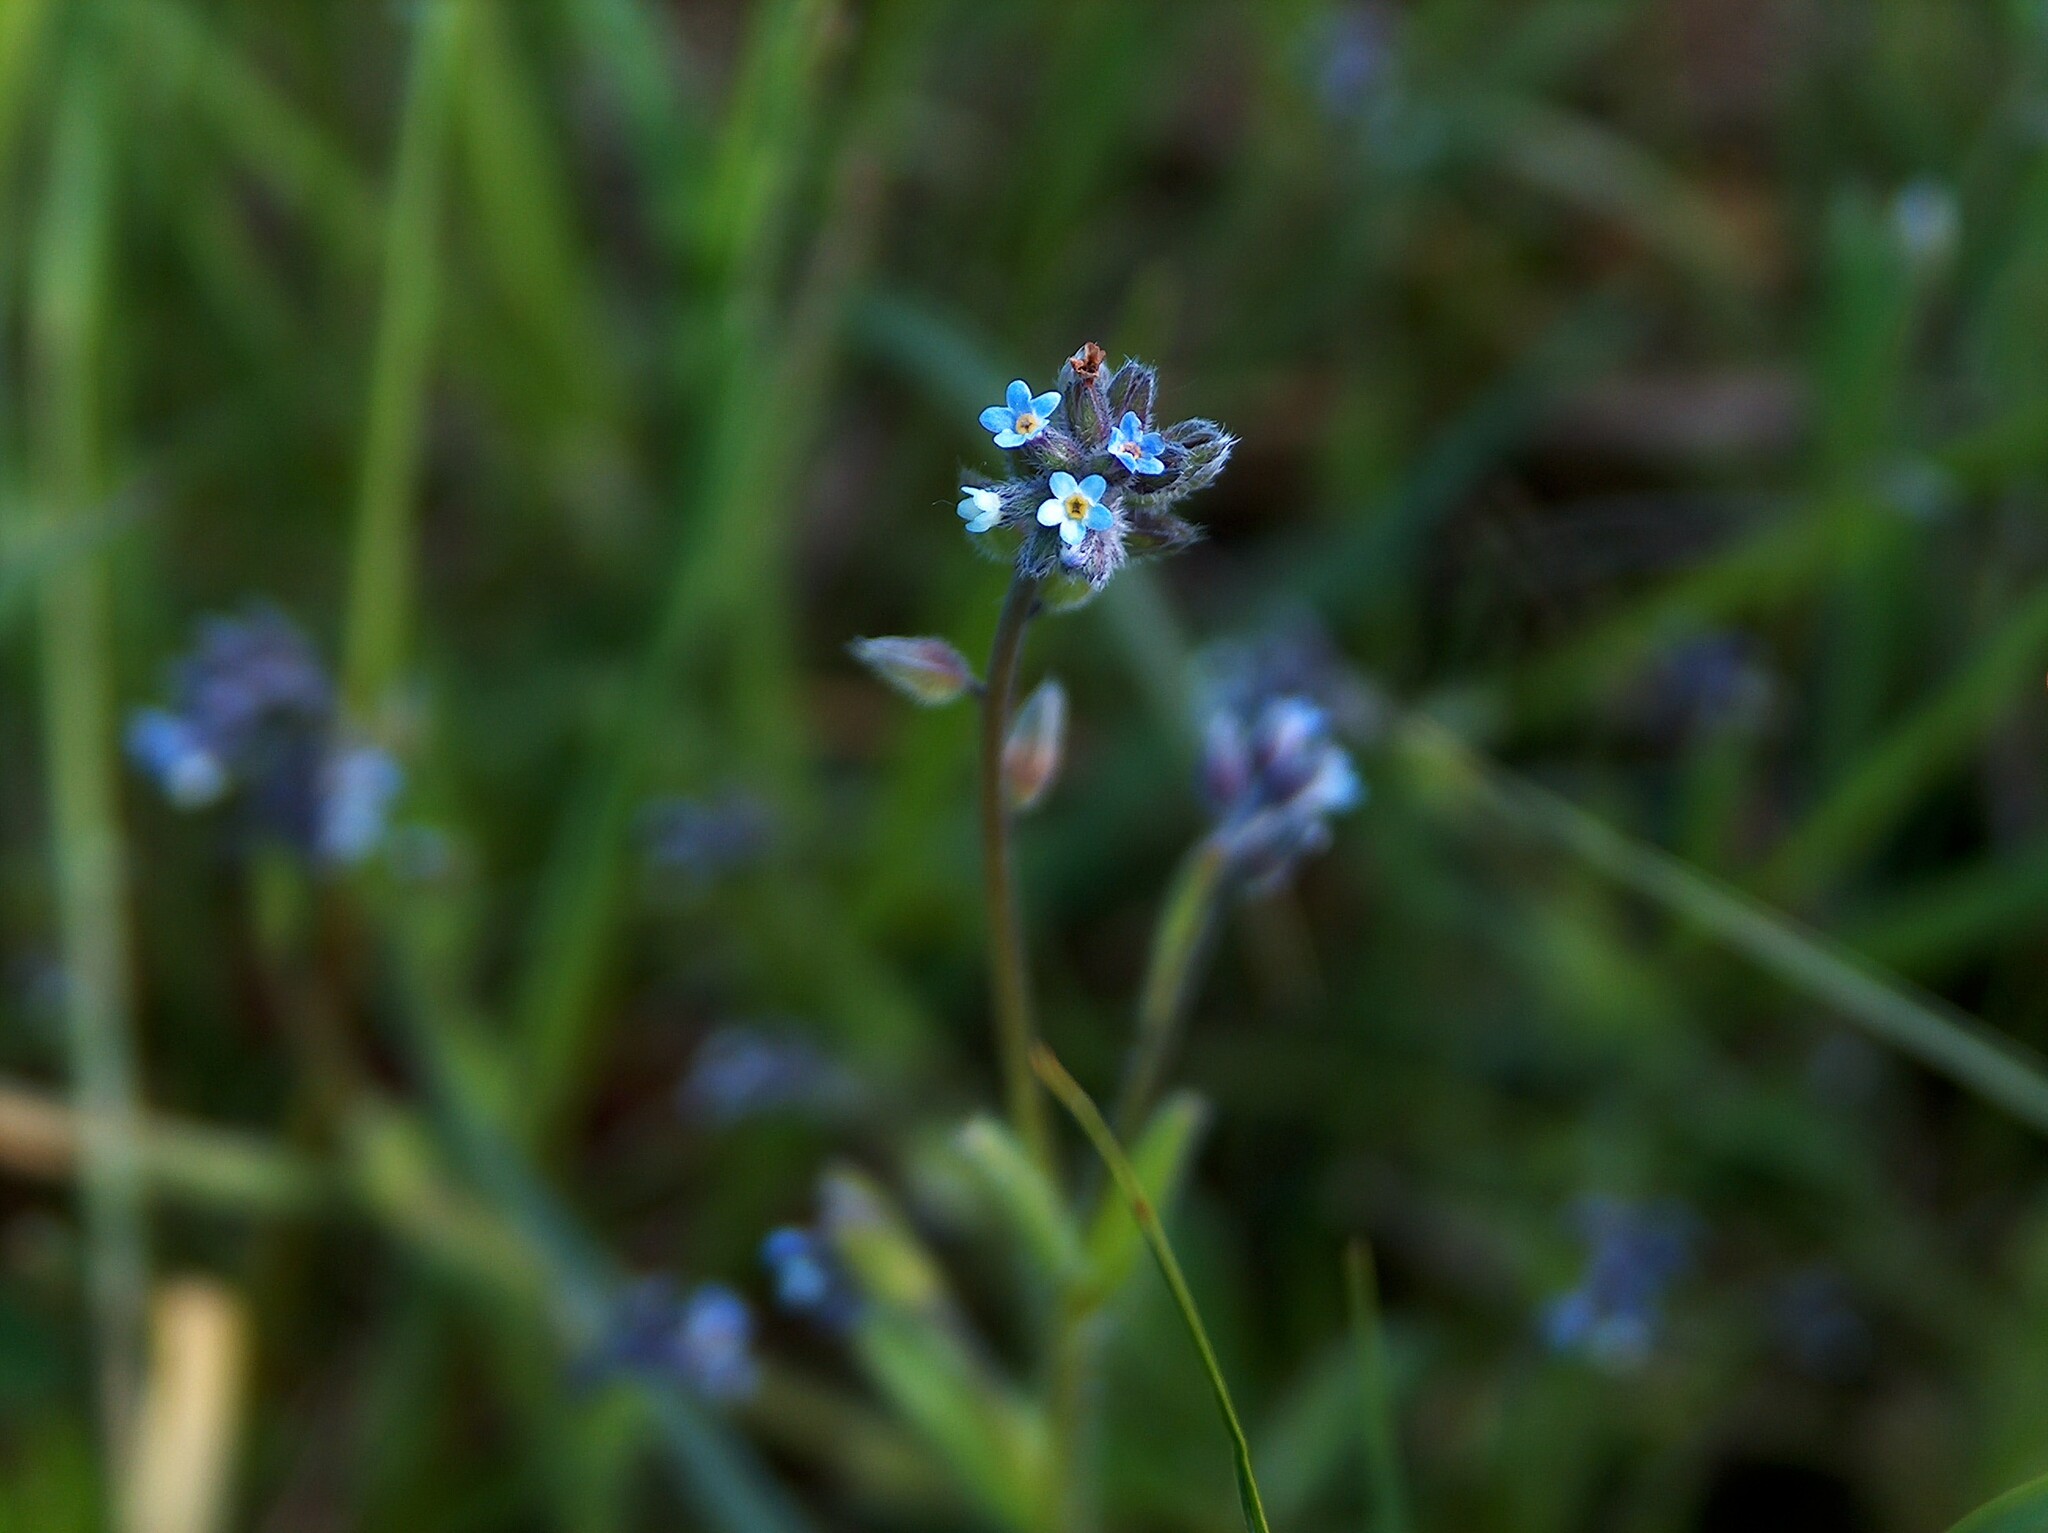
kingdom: Plantae
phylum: Tracheophyta
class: Magnoliopsida
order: Boraginales
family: Boraginaceae
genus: Myosotis
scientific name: Myosotis ramosissima
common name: Early forget-me-not
